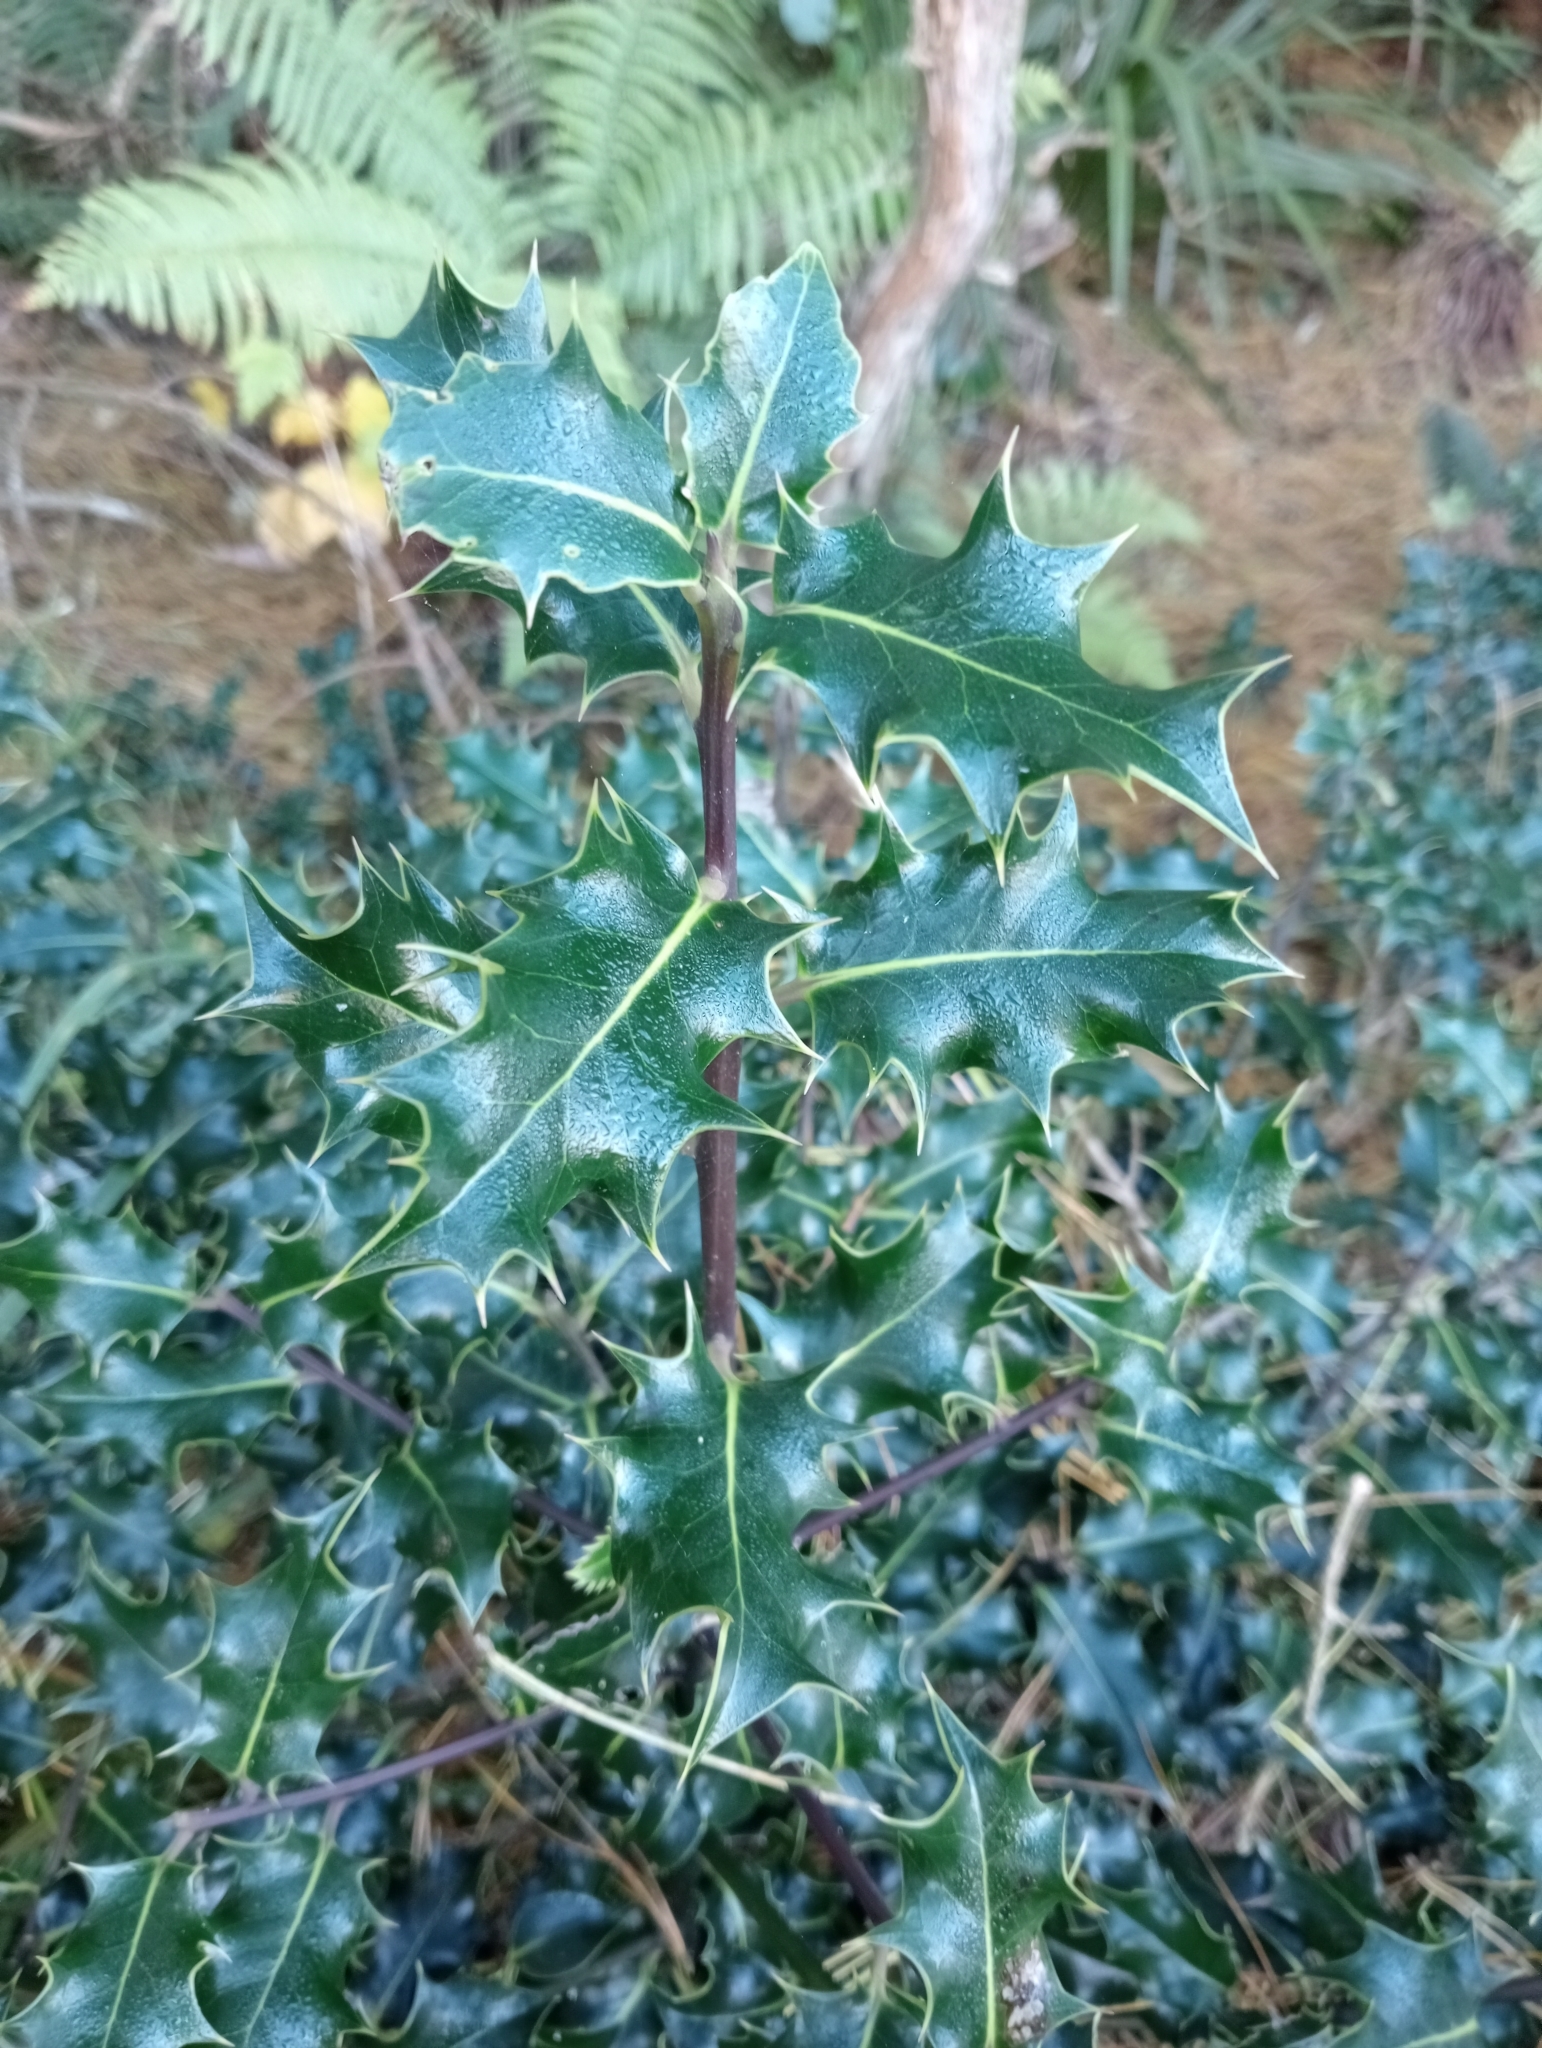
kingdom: Plantae
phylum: Tracheophyta
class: Magnoliopsida
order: Aquifoliales
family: Aquifoliaceae
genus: Ilex
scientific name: Ilex aquifolium
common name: English holly
